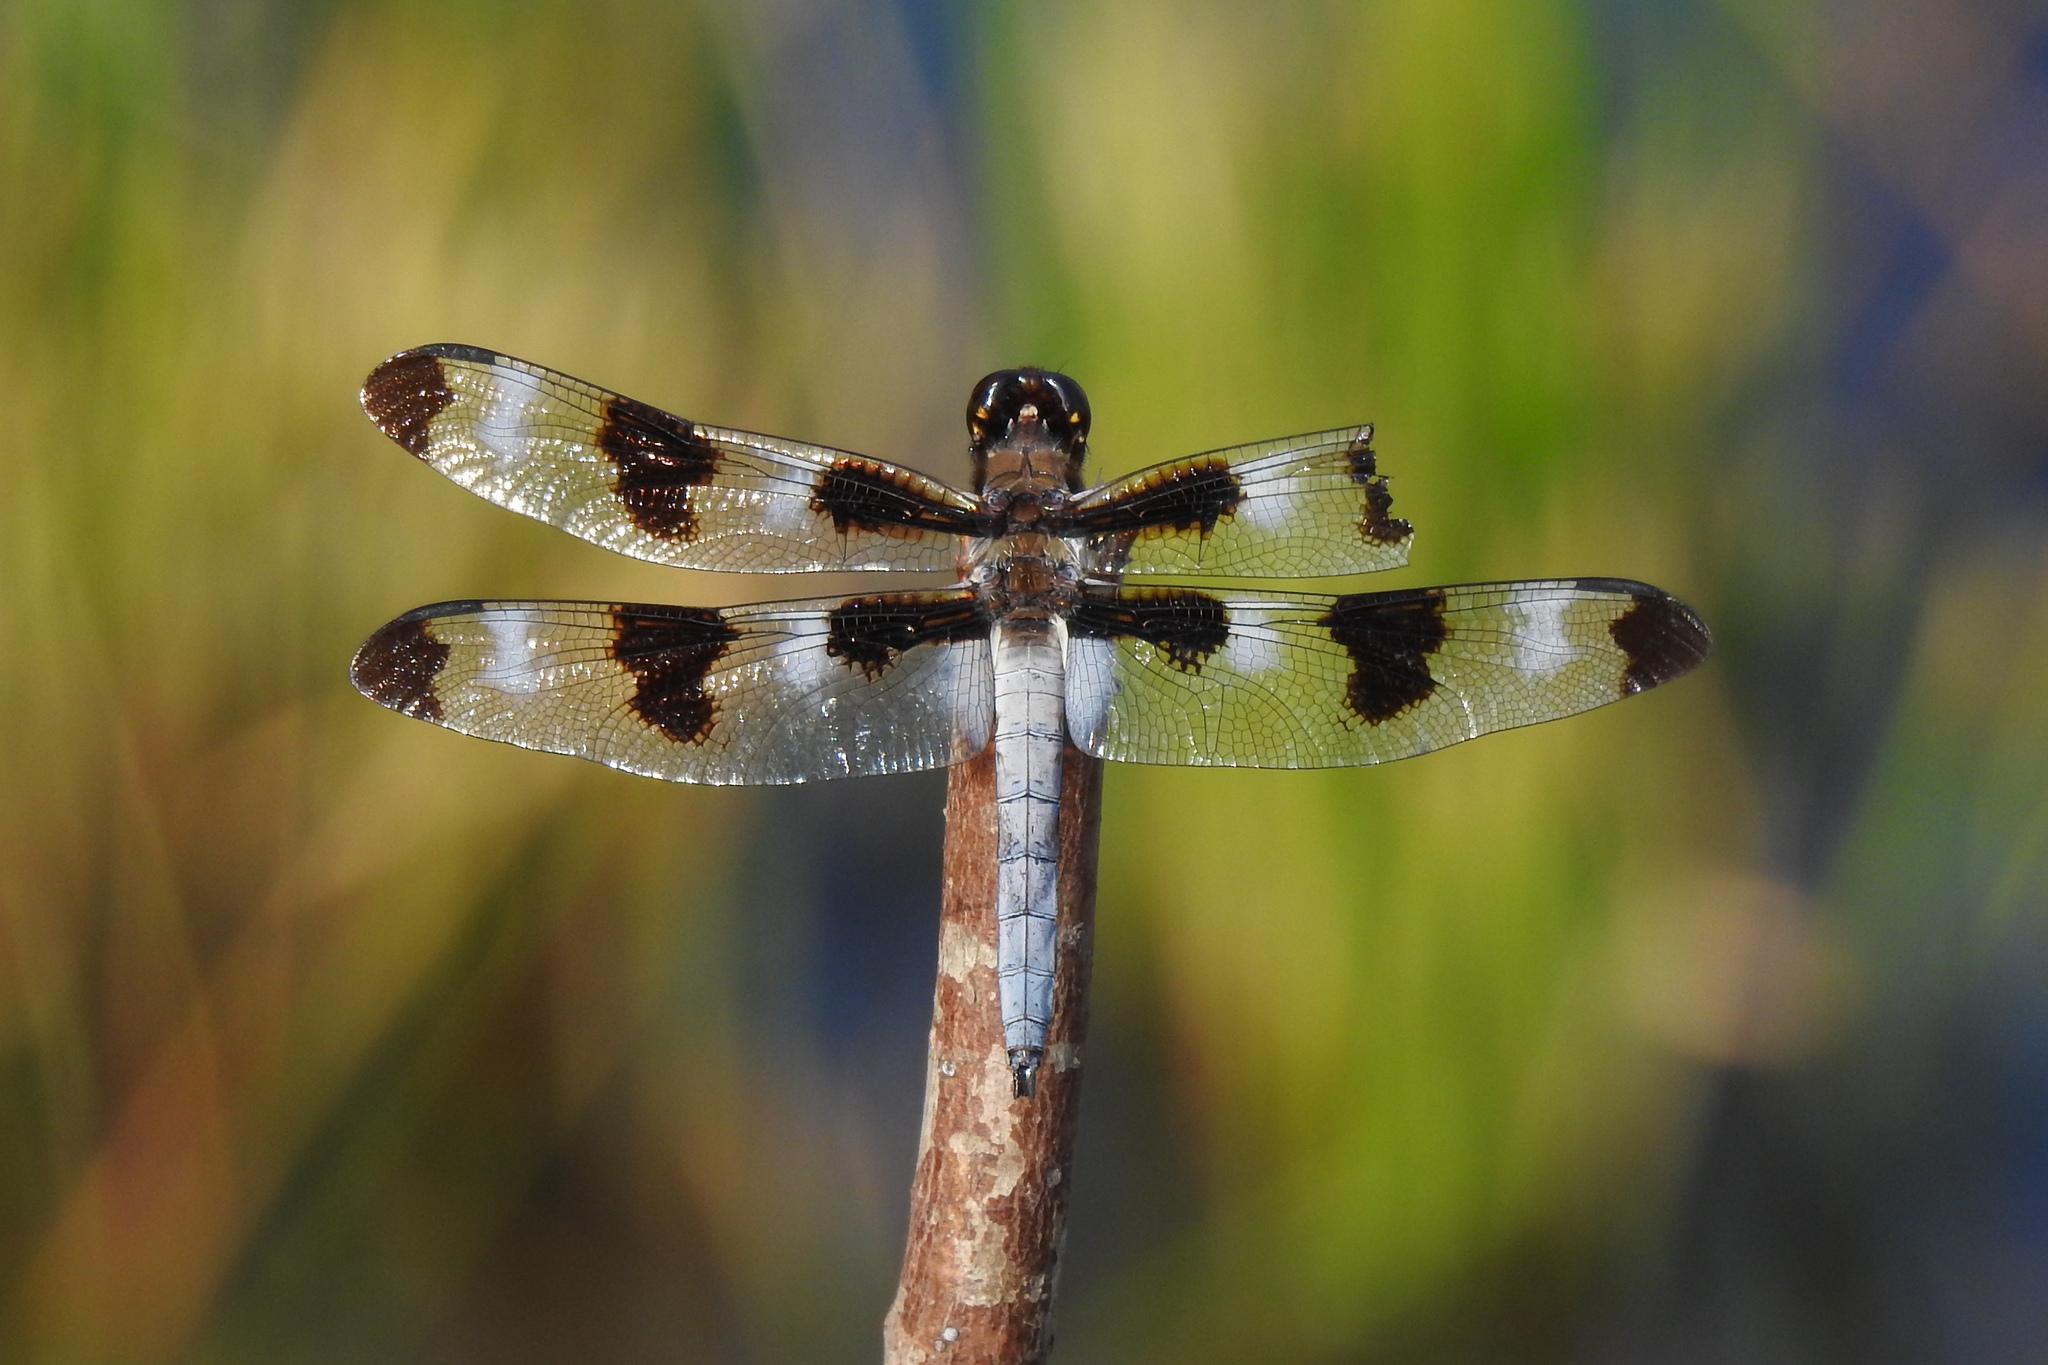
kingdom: Animalia
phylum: Arthropoda
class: Insecta
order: Odonata
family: Libellulidae
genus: Libellula
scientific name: Libellula pulchella
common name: Twelve-spotted skimmer
